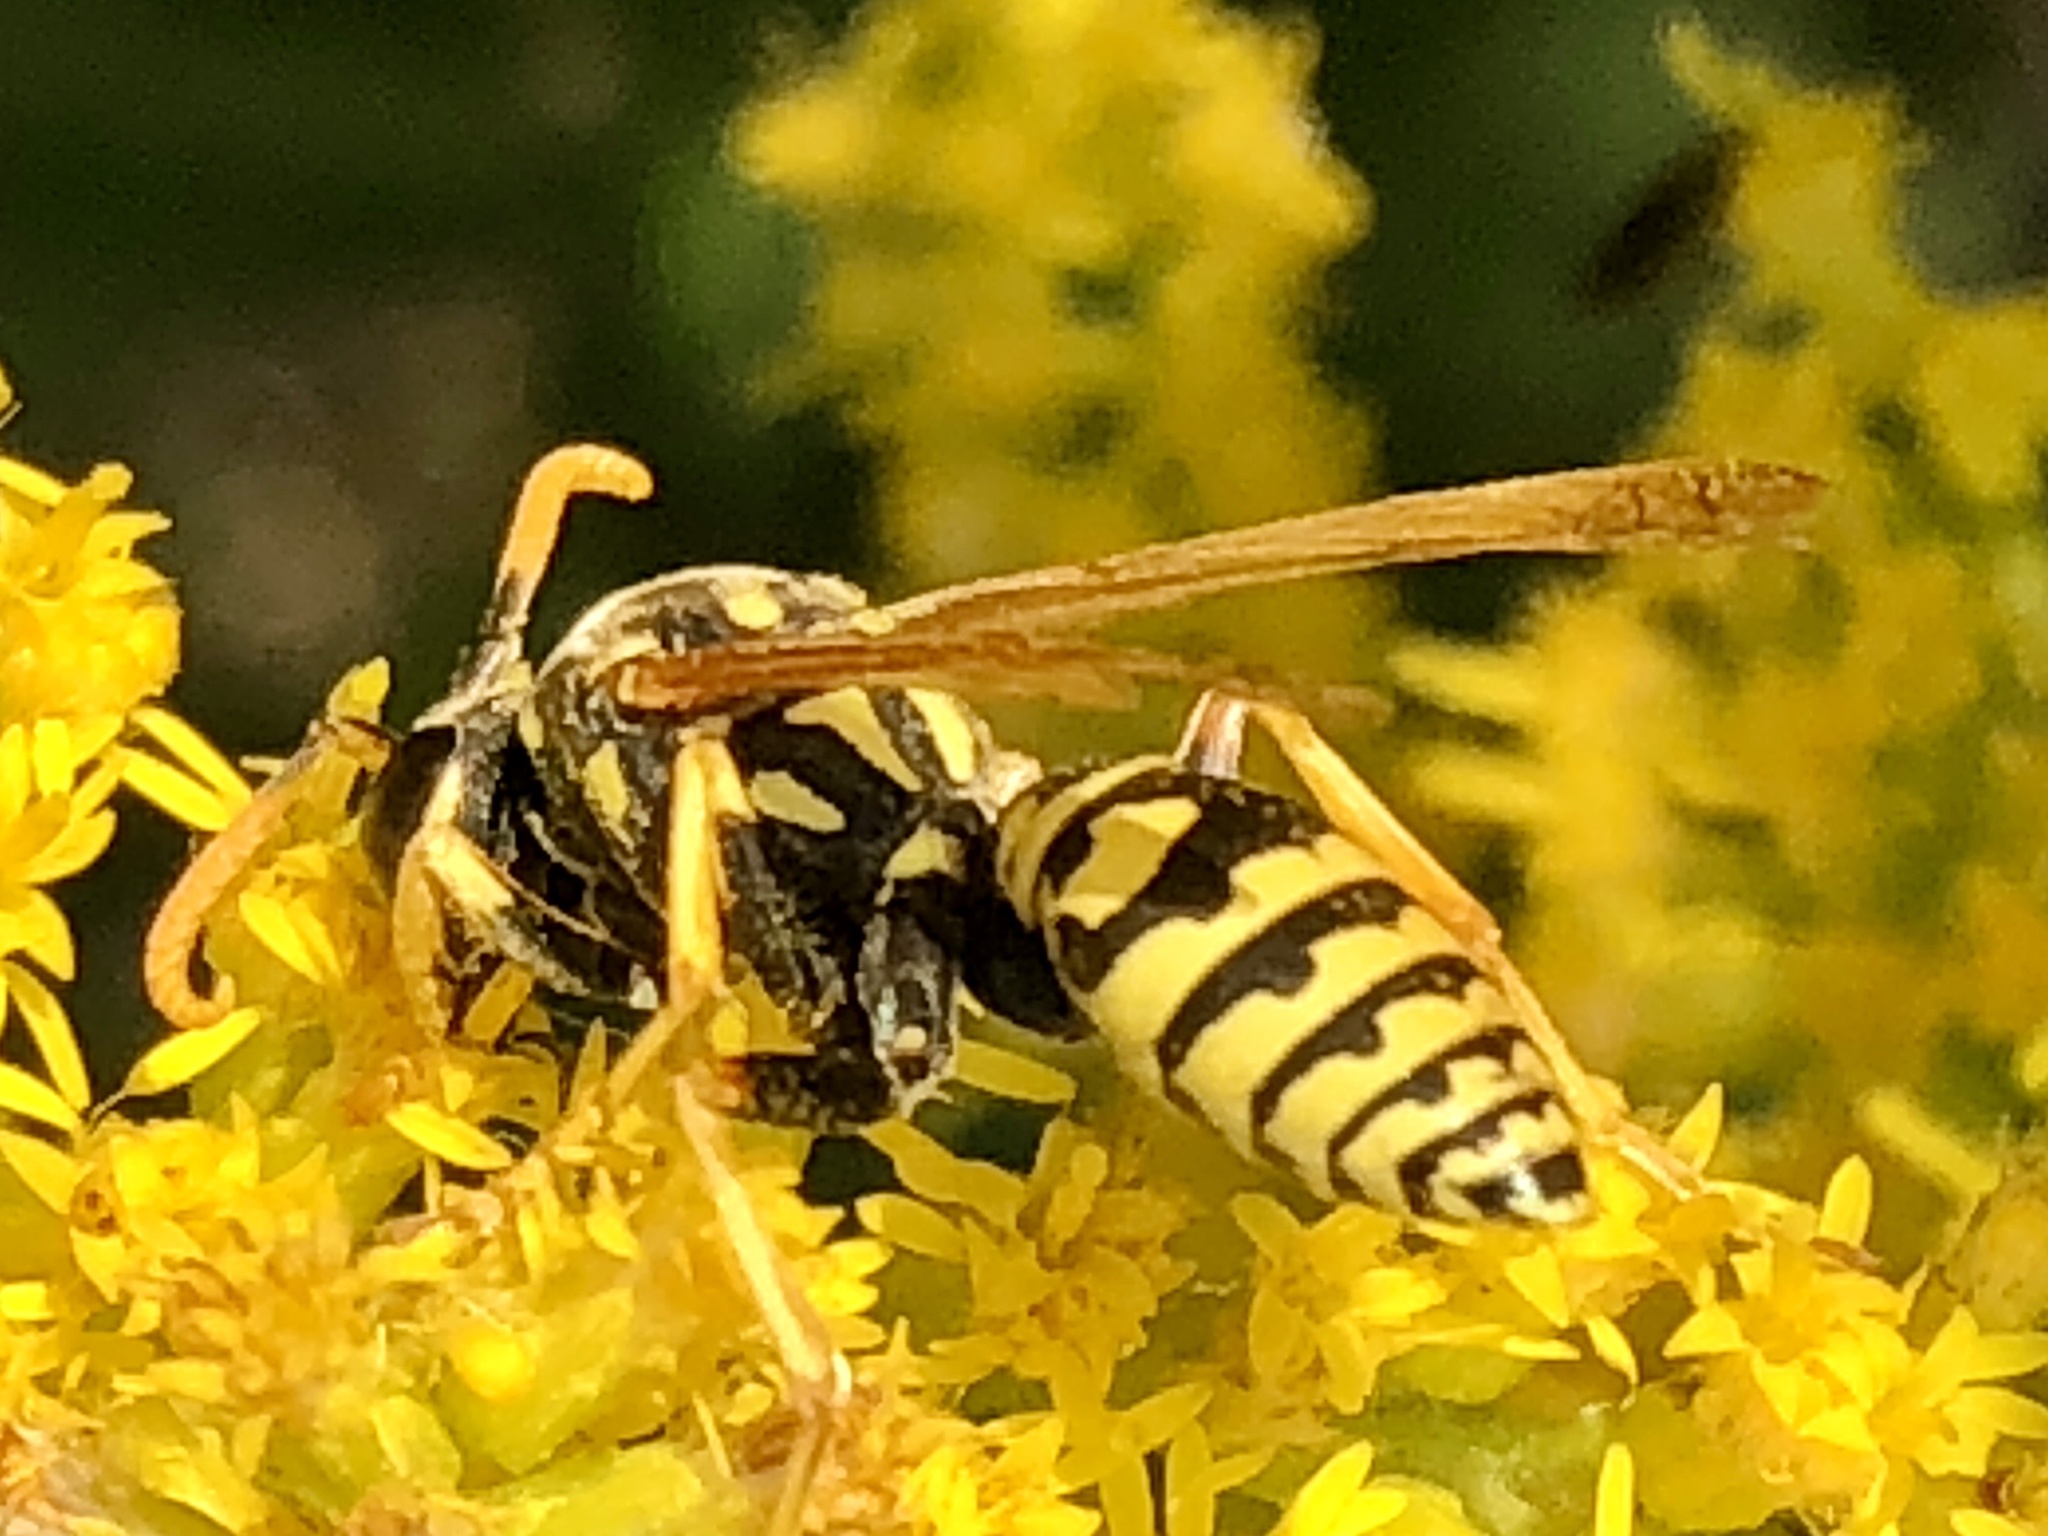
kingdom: Animalia
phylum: Arthropoda
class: Insecta
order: Hymenoptera
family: Eumenidae
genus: Polistes
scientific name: Polistes dominula
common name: Paper wasp
